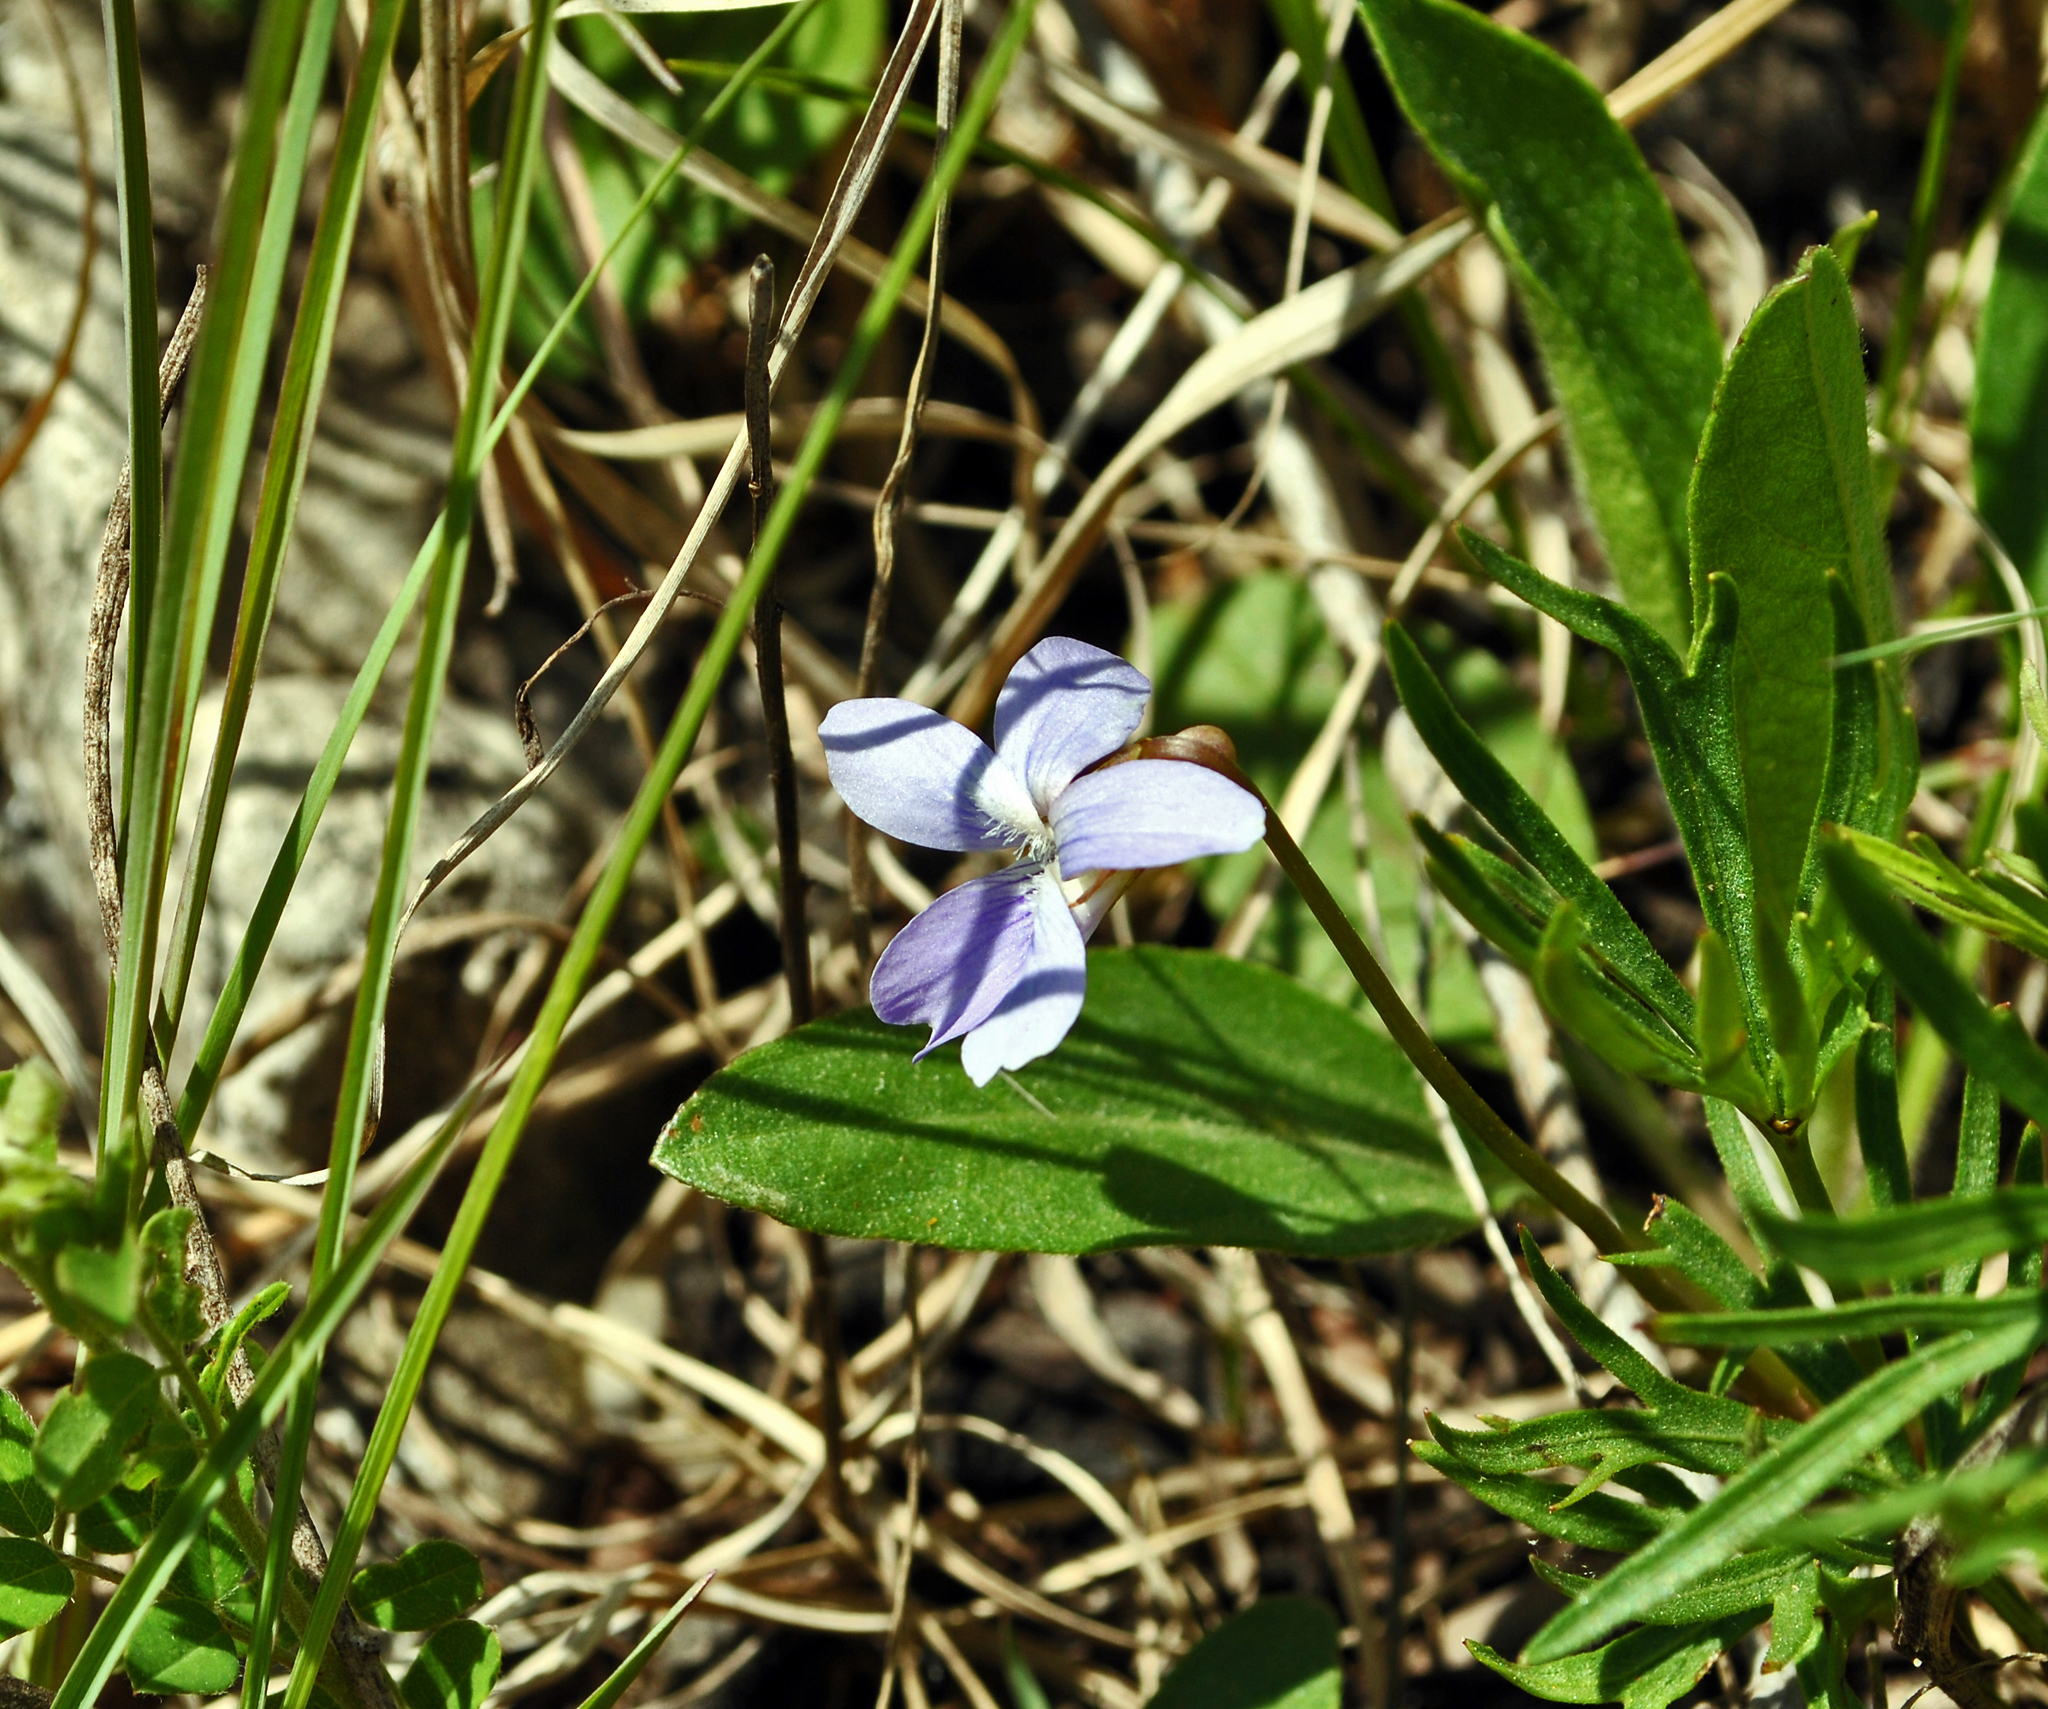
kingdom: Plantae
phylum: Tracheophyta
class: Magnoliopsida
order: Malpighiales
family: Violaceae
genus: Viola
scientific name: Viola pedatifida
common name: Prairie violet
